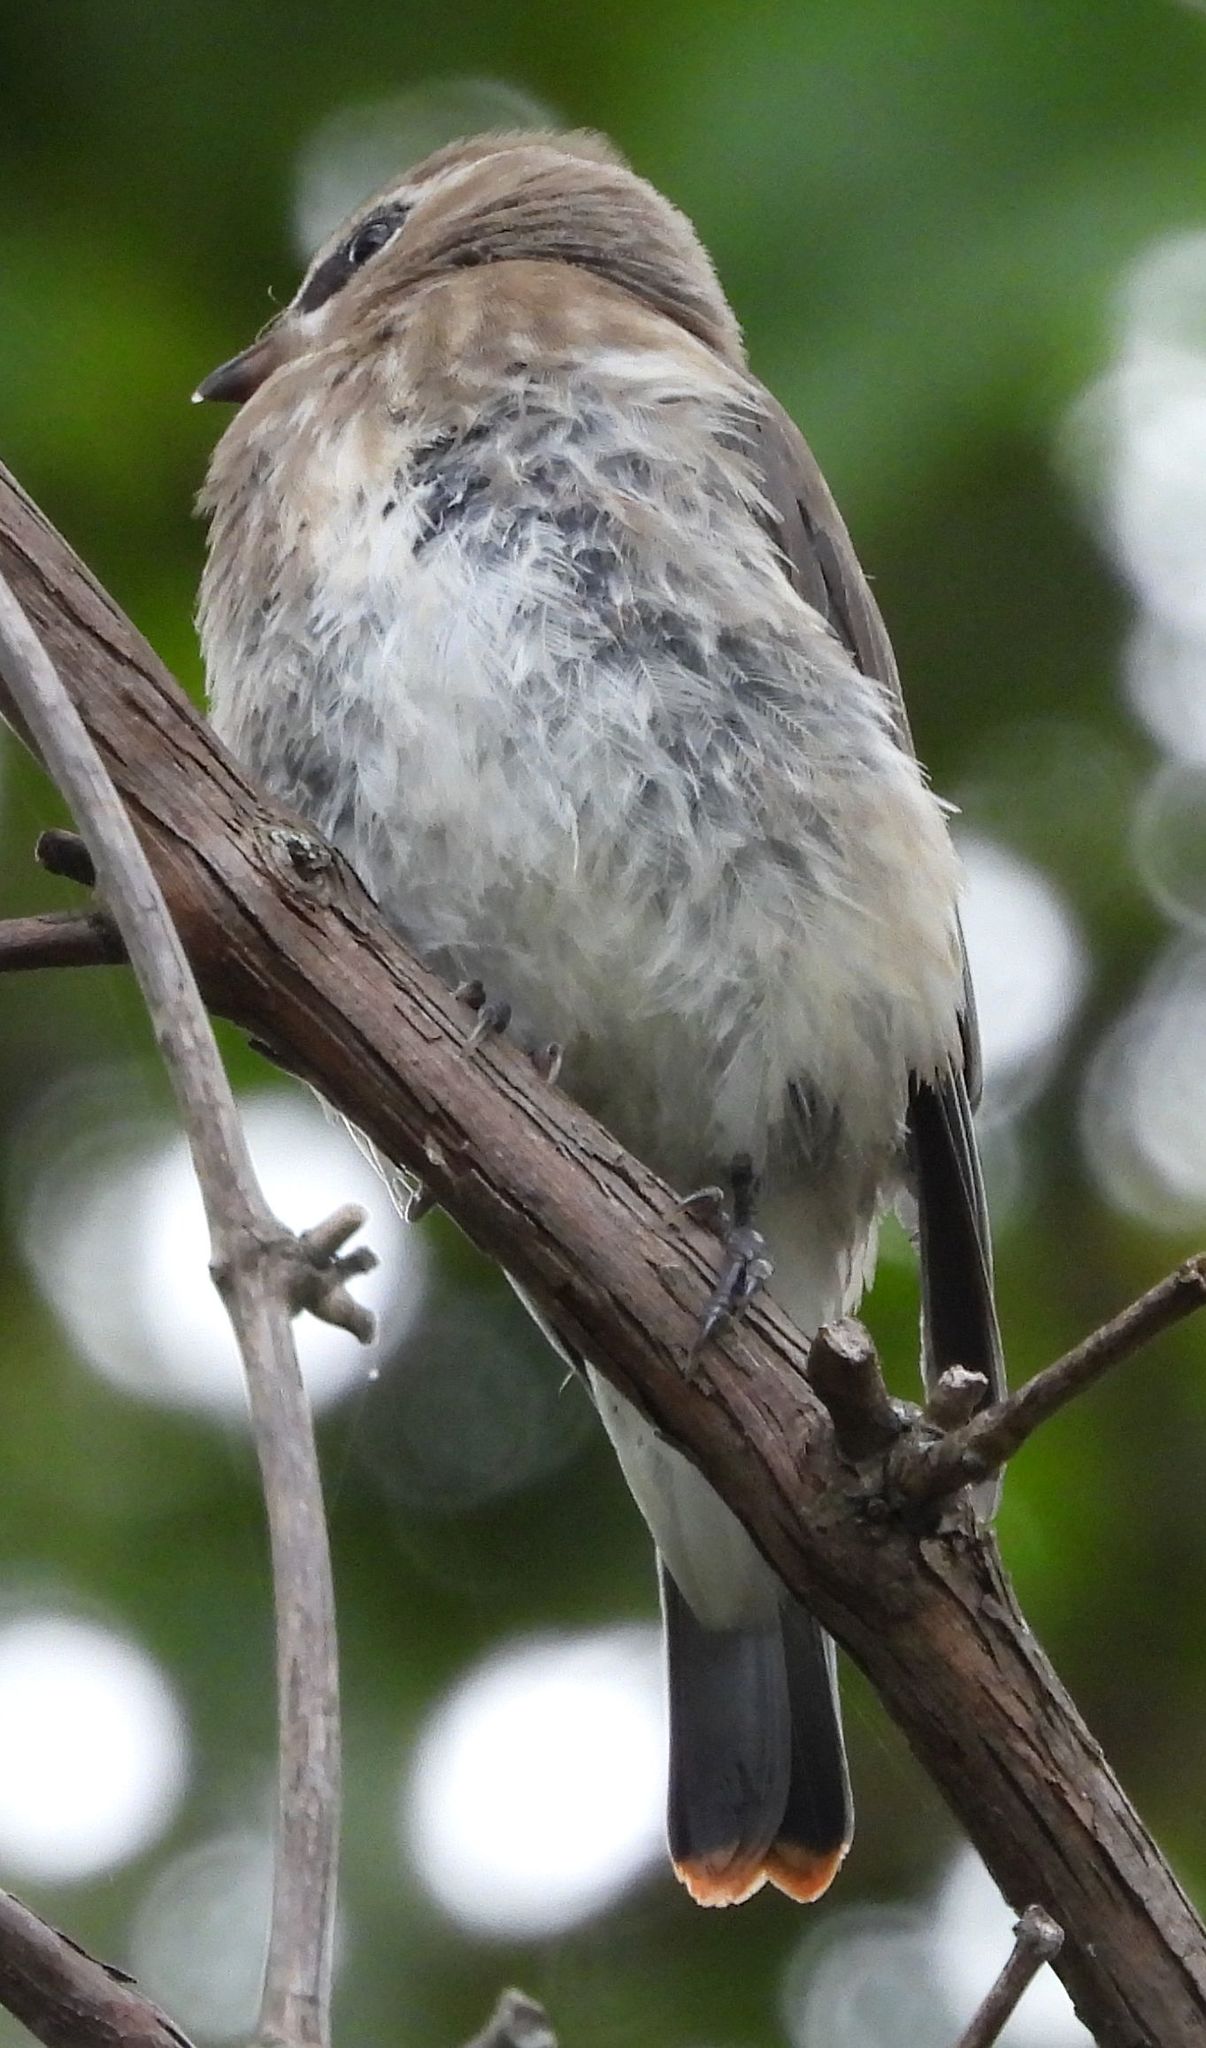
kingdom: Animalia
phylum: Chordata
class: Aves
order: Passeriformes
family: Bombycillidae
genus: Bombycilla
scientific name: Bombycilla cedrorum
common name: Cedar waxwing
